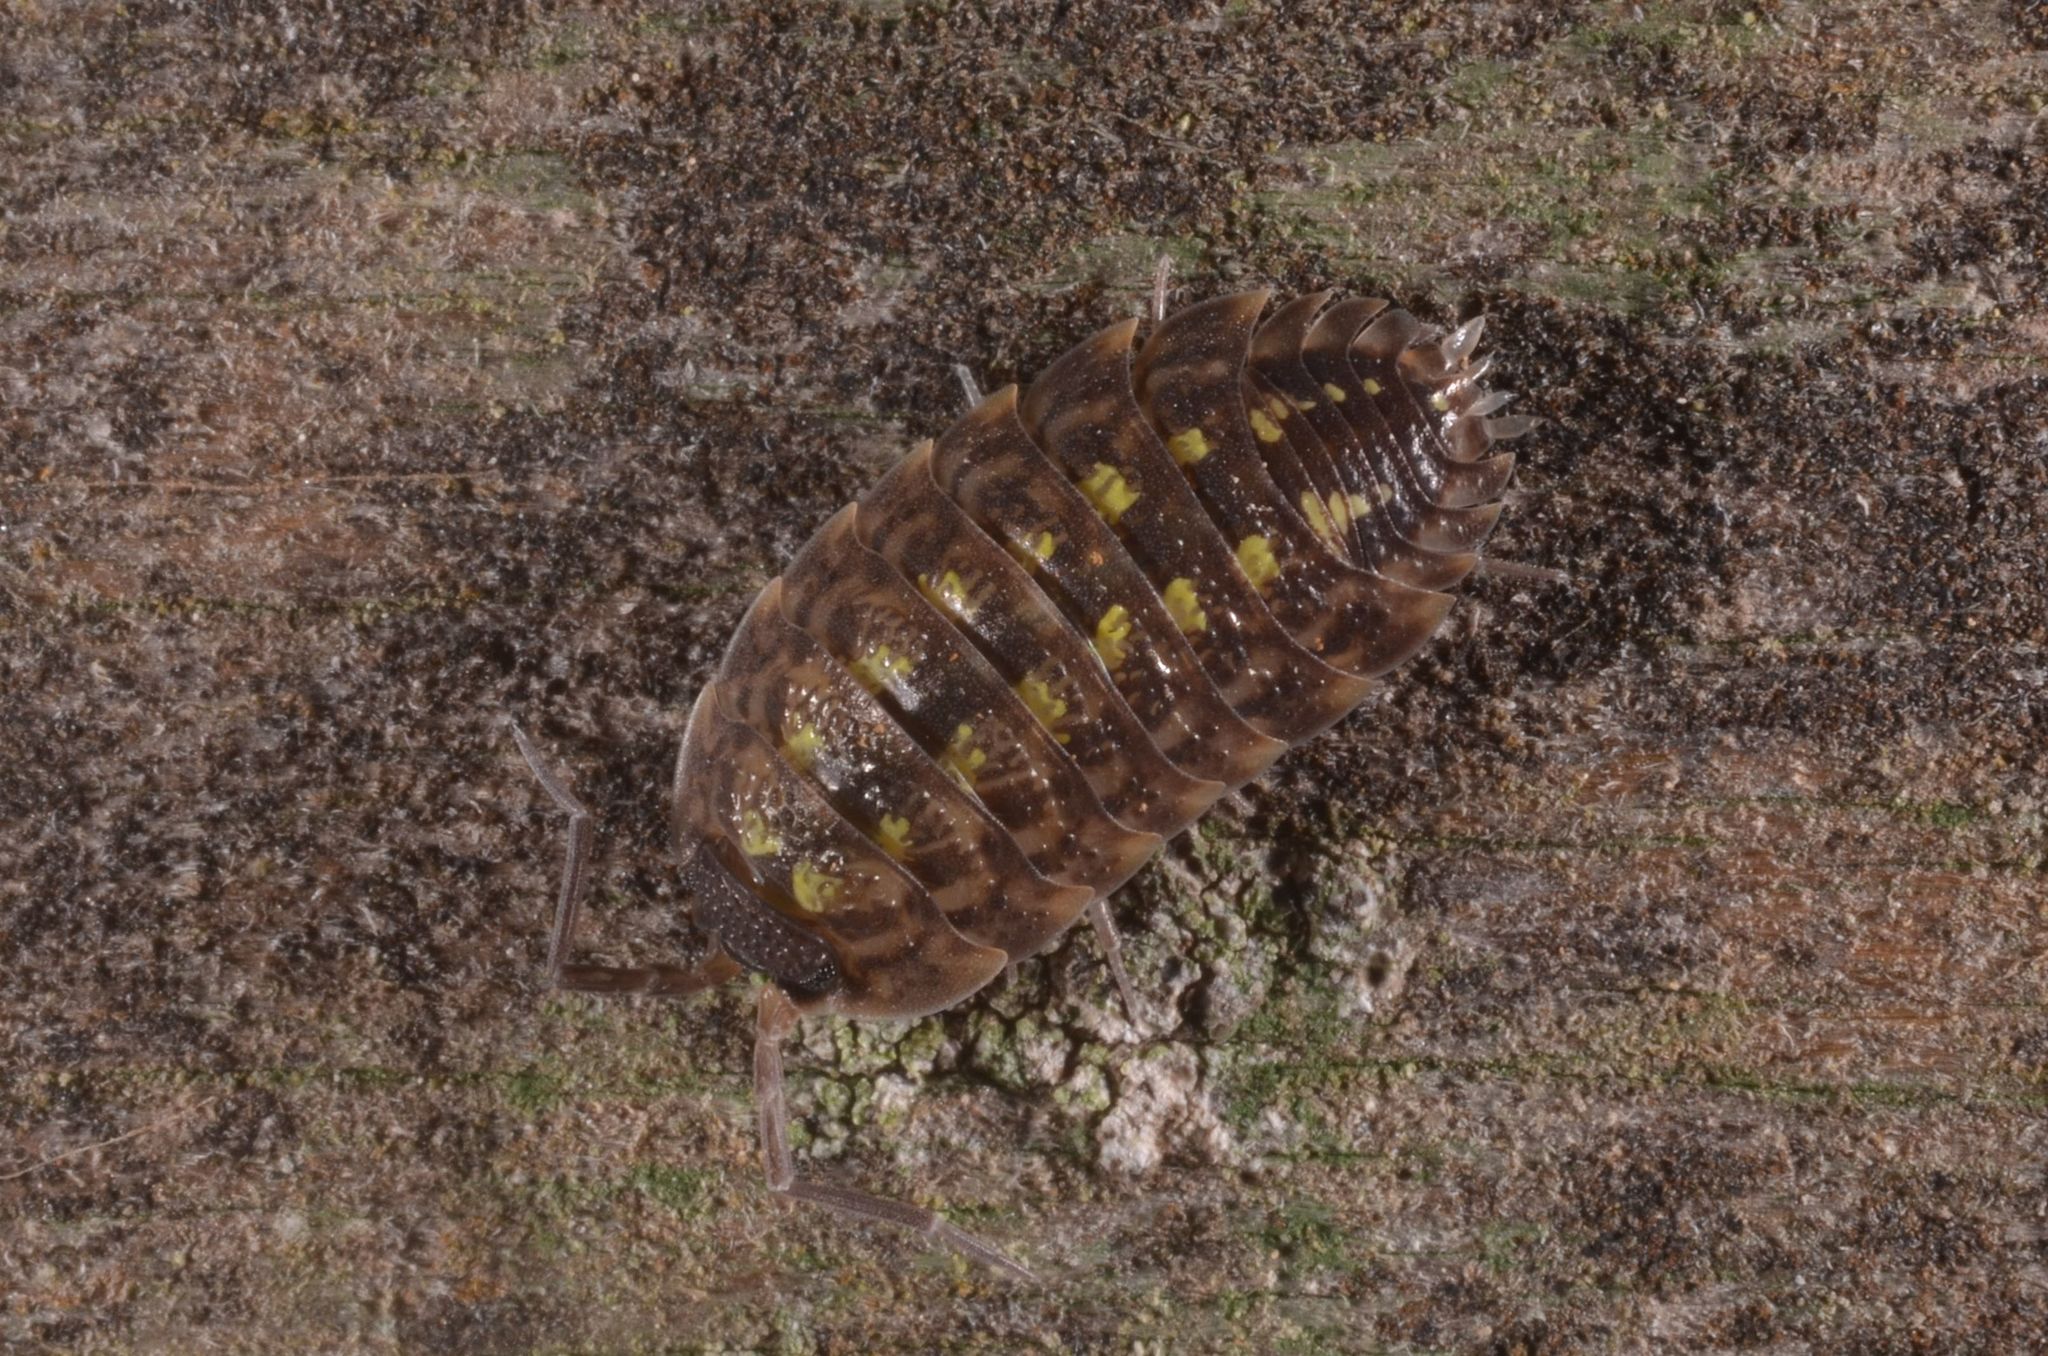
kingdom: Animalia
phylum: Arthropoda
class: Malacostraca
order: Isopoda
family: Porcellionidae
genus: Porcellio
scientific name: Porcellio spinicornis
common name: Painted woodlouse
